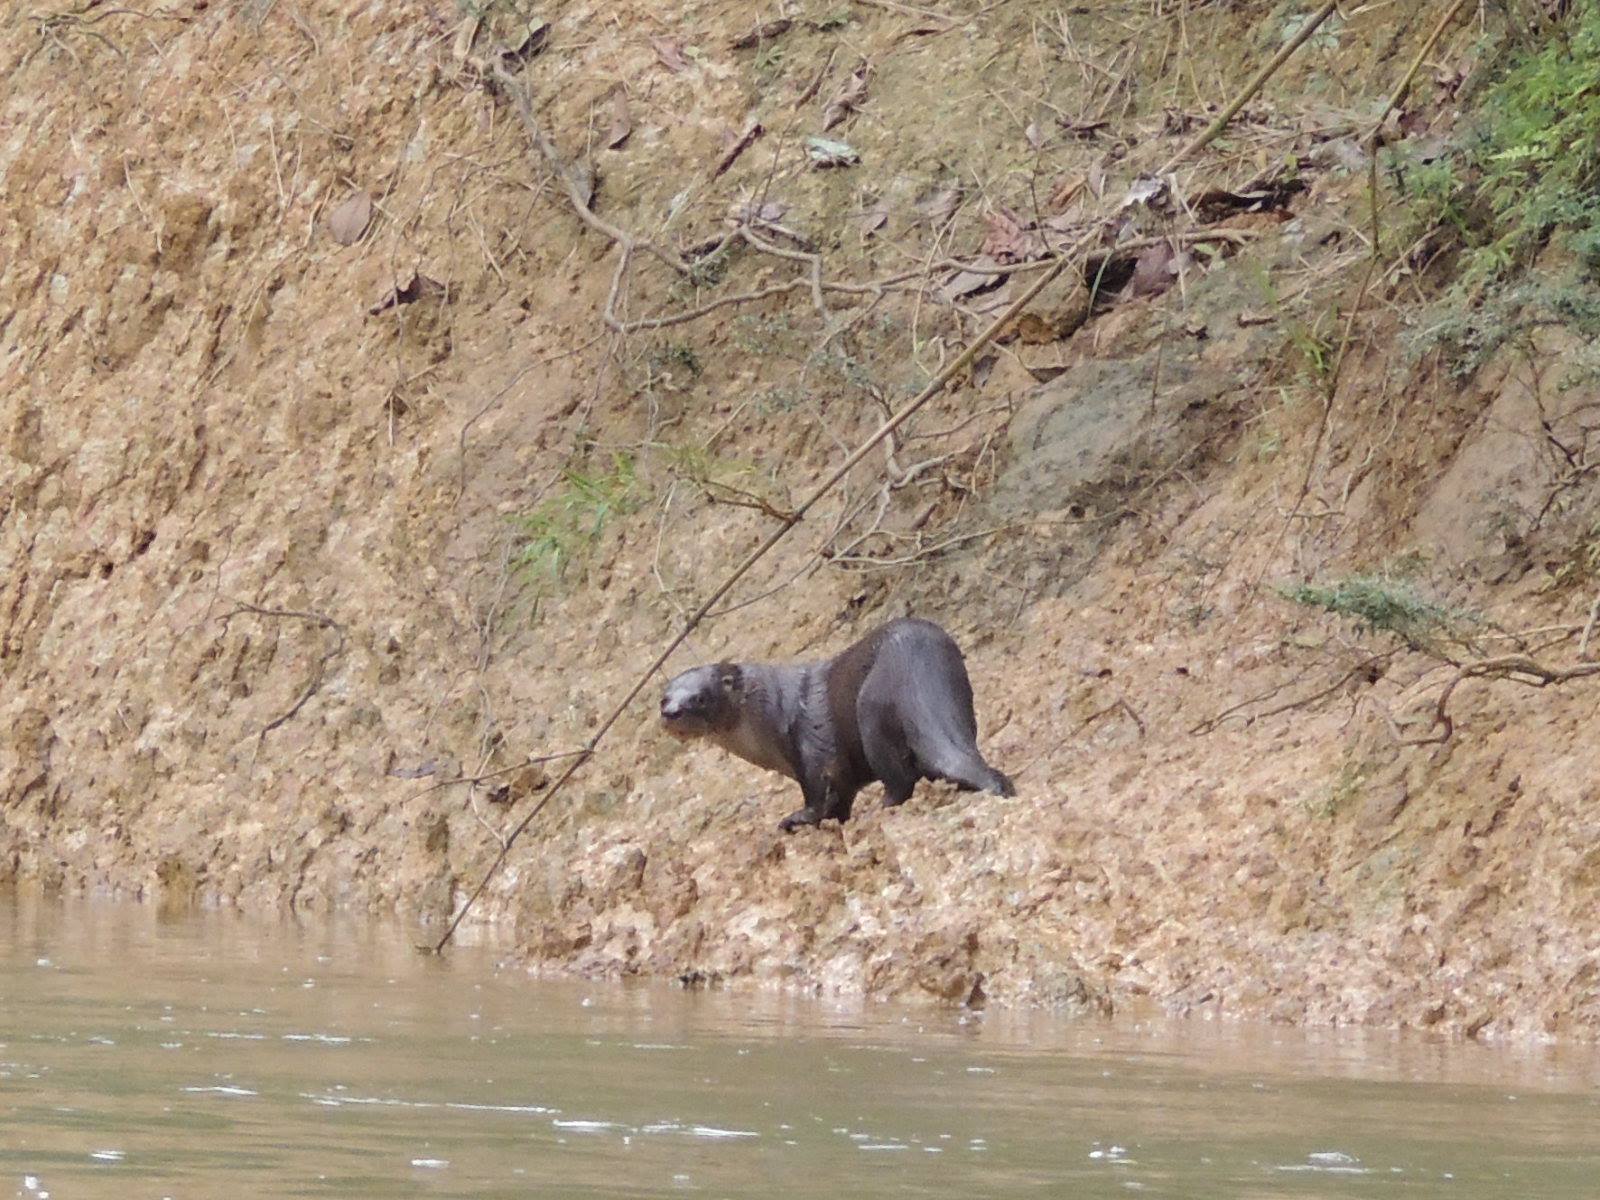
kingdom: Animalia
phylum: Chordata
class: Mammalia
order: Carnivora
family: Mustelidae
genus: Lontra
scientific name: Lontra longicaudis
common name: Neotropical otter
